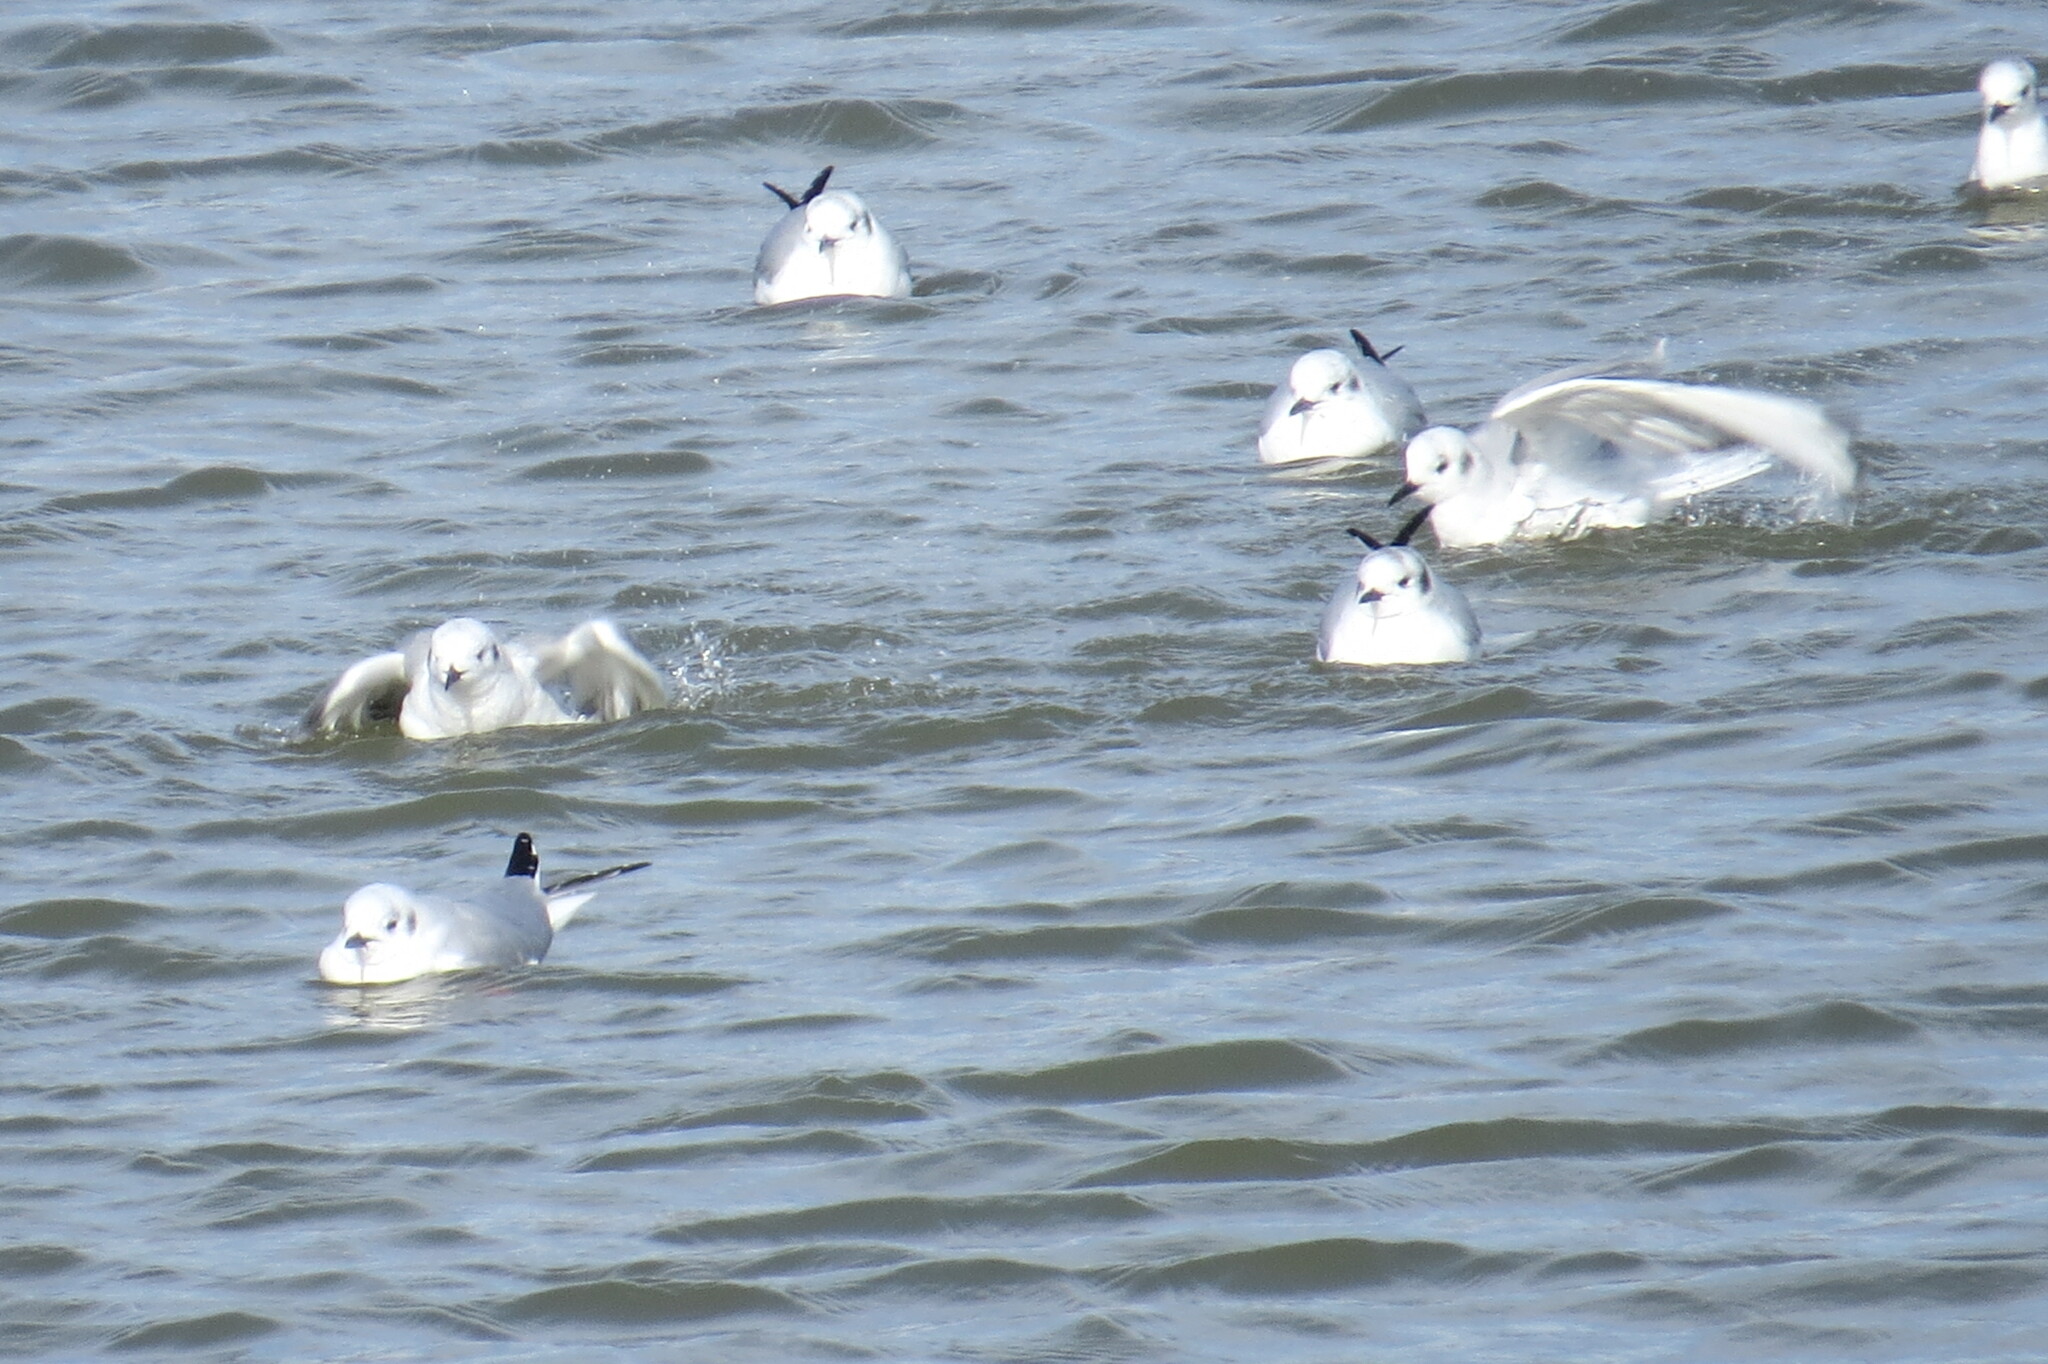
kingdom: Animalia
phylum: Chordata
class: Aves
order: Charadriiformes
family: Laridae
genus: Chroicocephalus
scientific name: Chroicocephalus philadelphia
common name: Bonaparte's gull
